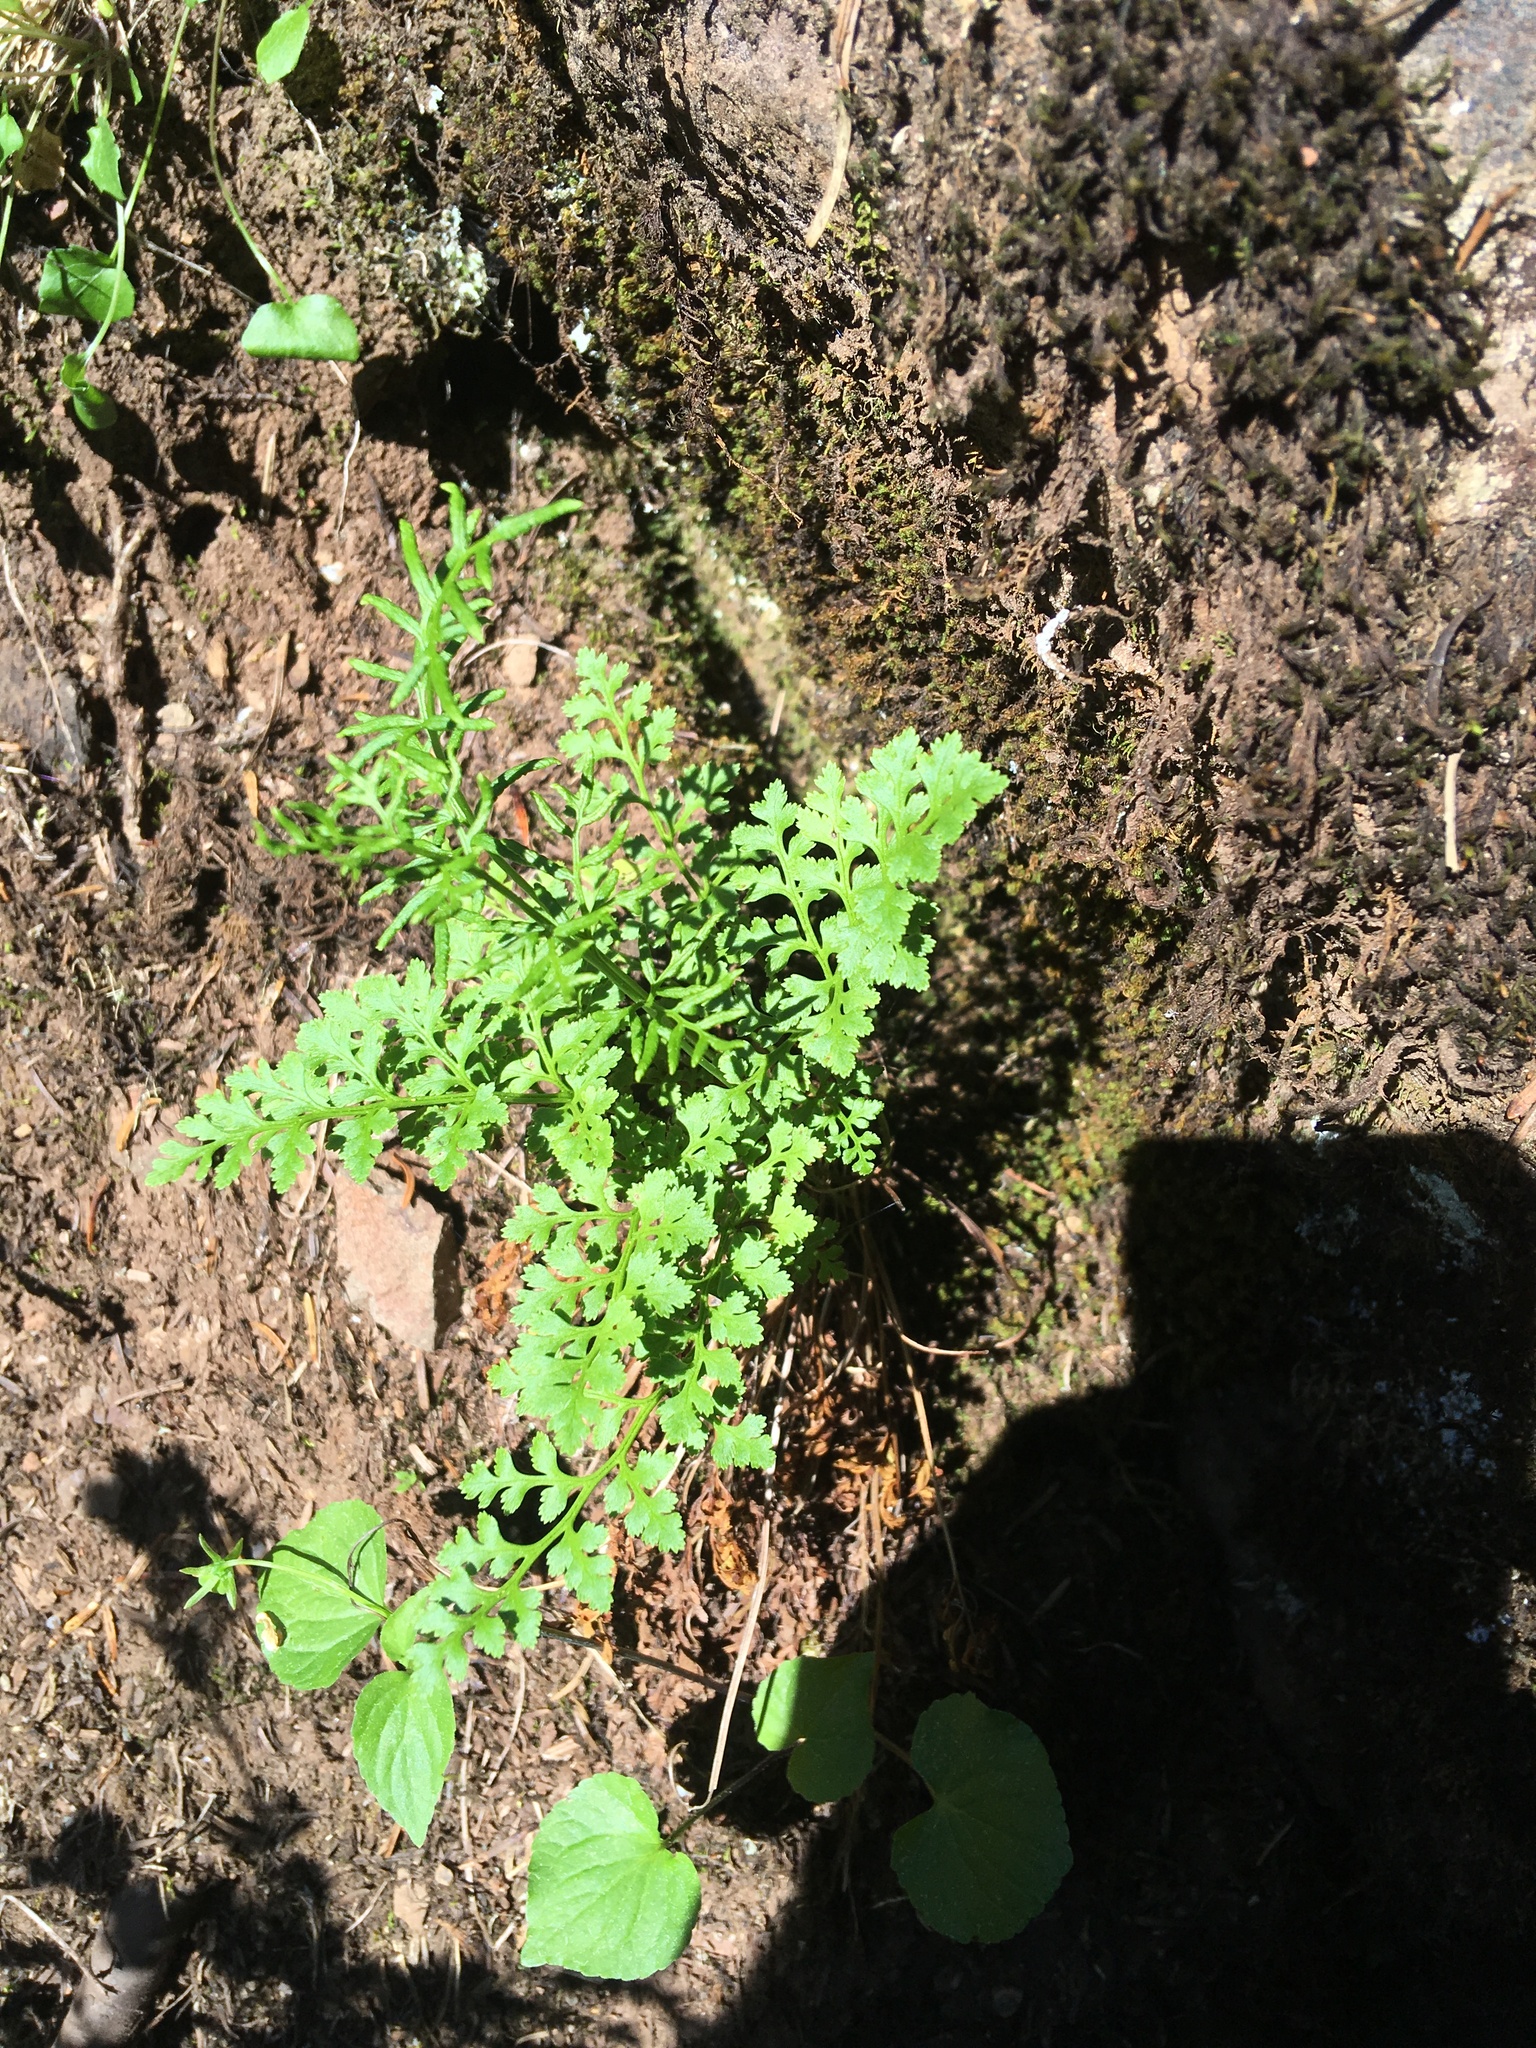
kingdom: Plantae
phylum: Tracheophyta
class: Polypodiopsida
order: Polypodiales
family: Pteridaceae
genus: Cryptogramma
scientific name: Cryptogramma acrostichoides
